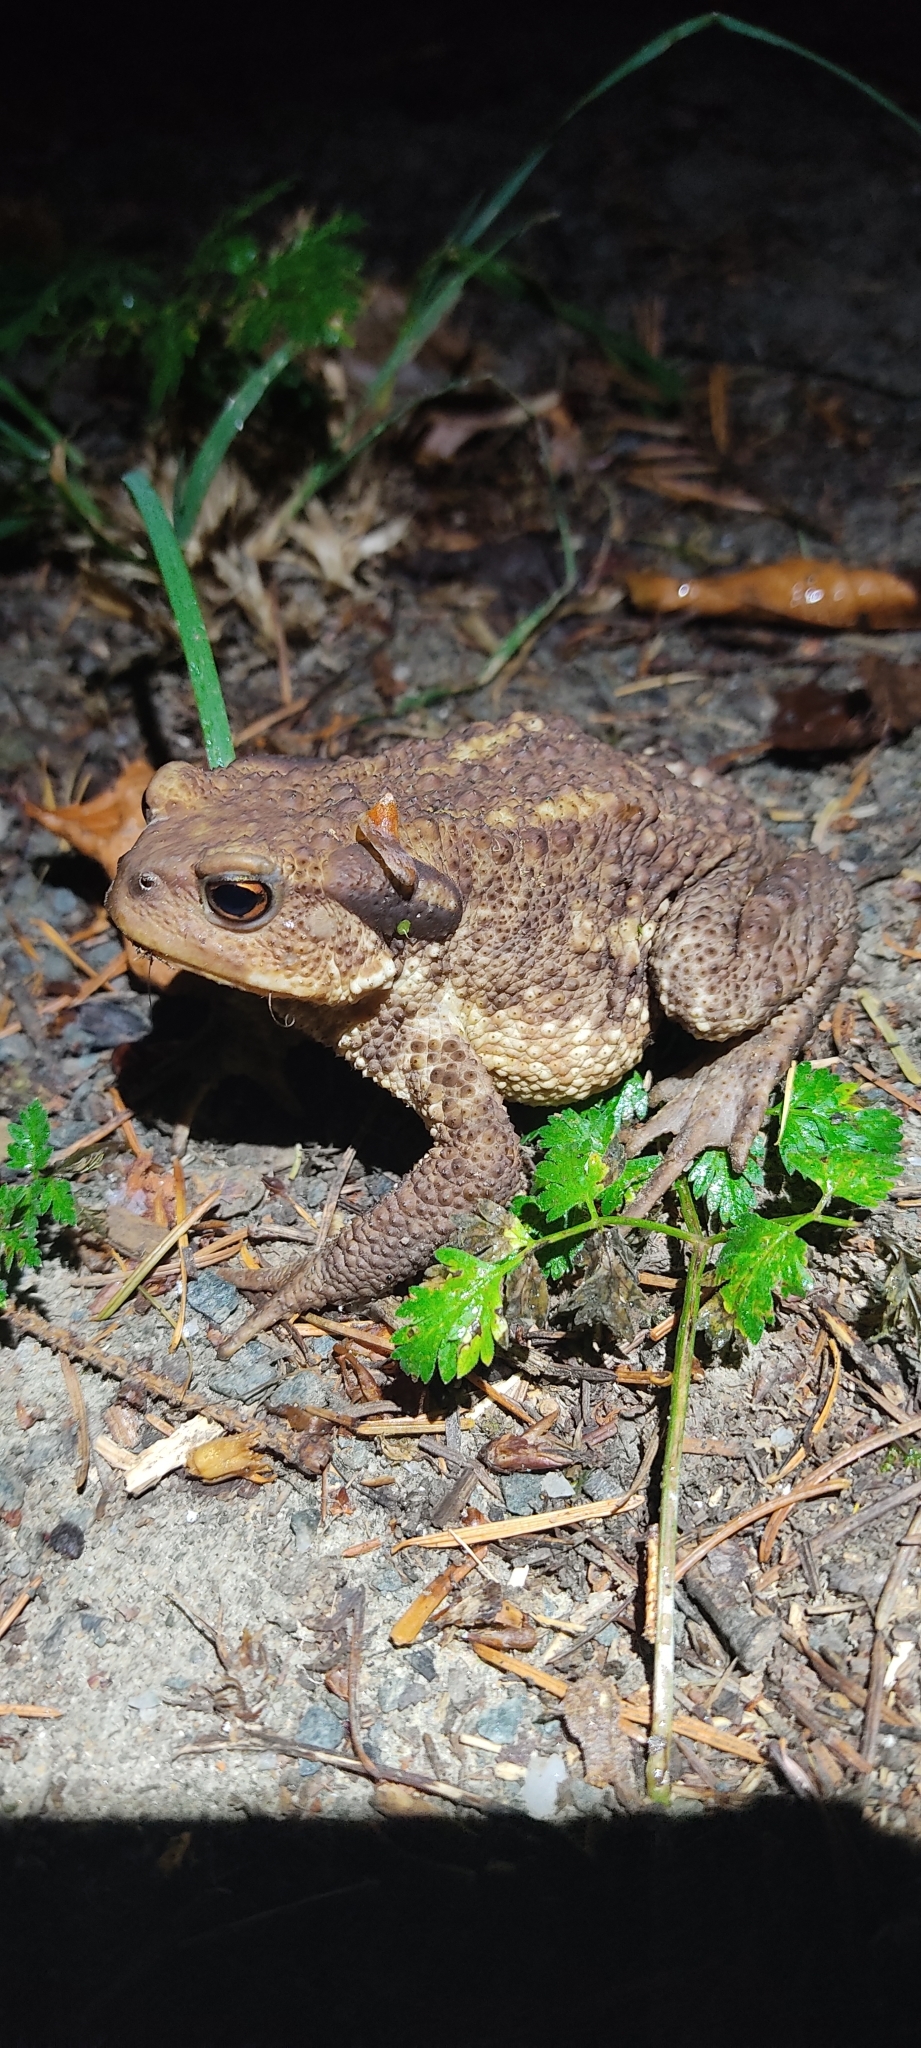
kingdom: Animalia
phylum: Chordata
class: Amphibia
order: Anura
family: Bufonidae
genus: Bufo
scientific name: Bufo spinosus
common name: Western common toad
